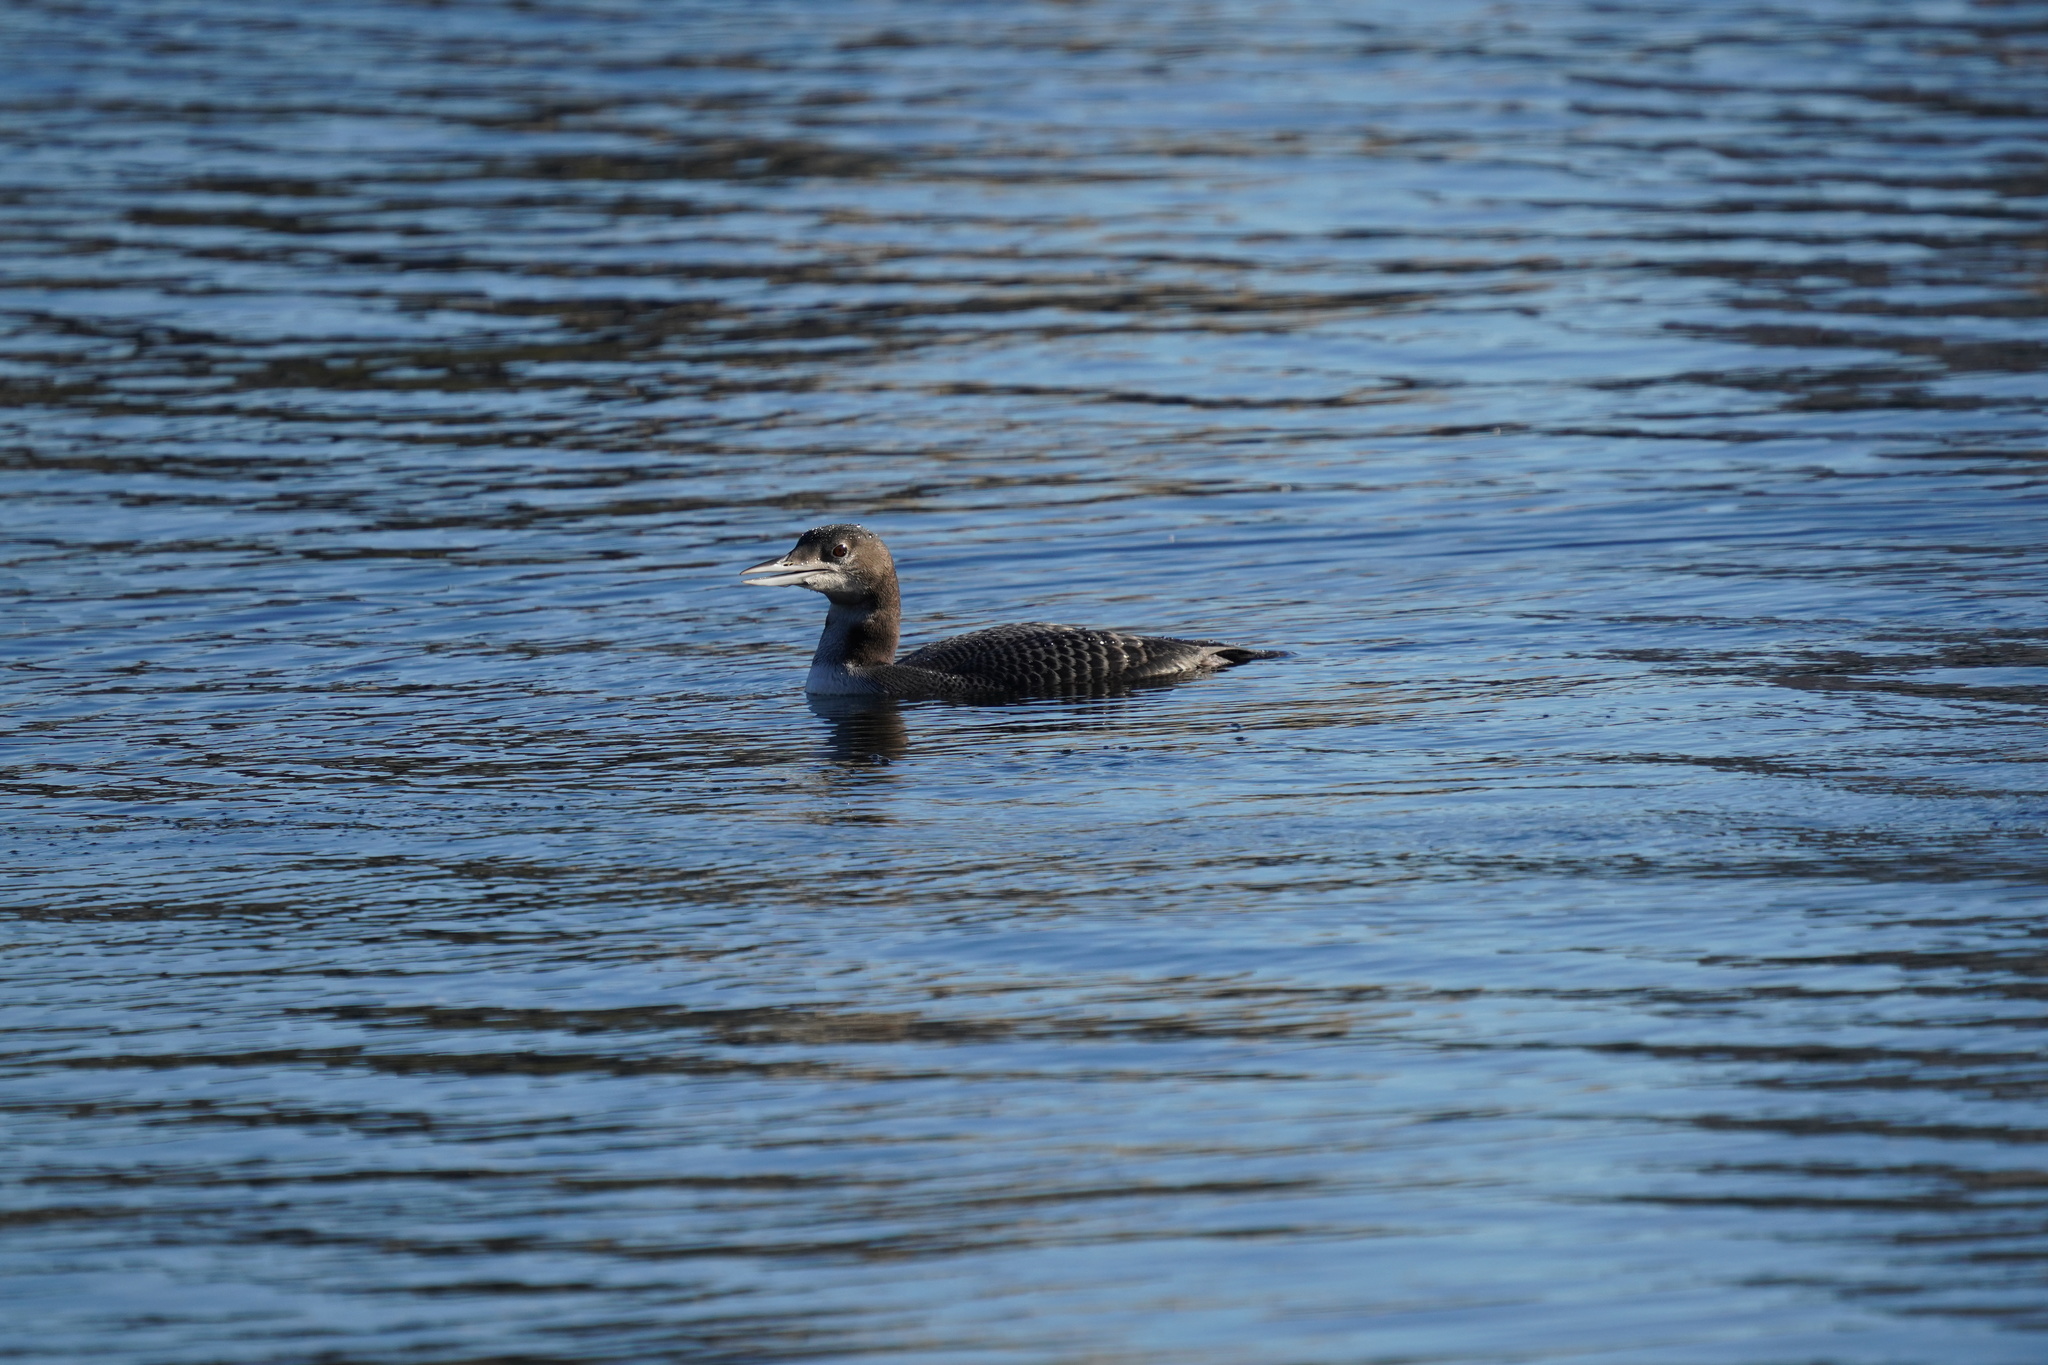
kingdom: Animalia
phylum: Chordata
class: Aves
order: Gaviiformes
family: Gaviidae
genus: Gavia
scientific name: Gavia immer
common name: Common loon
